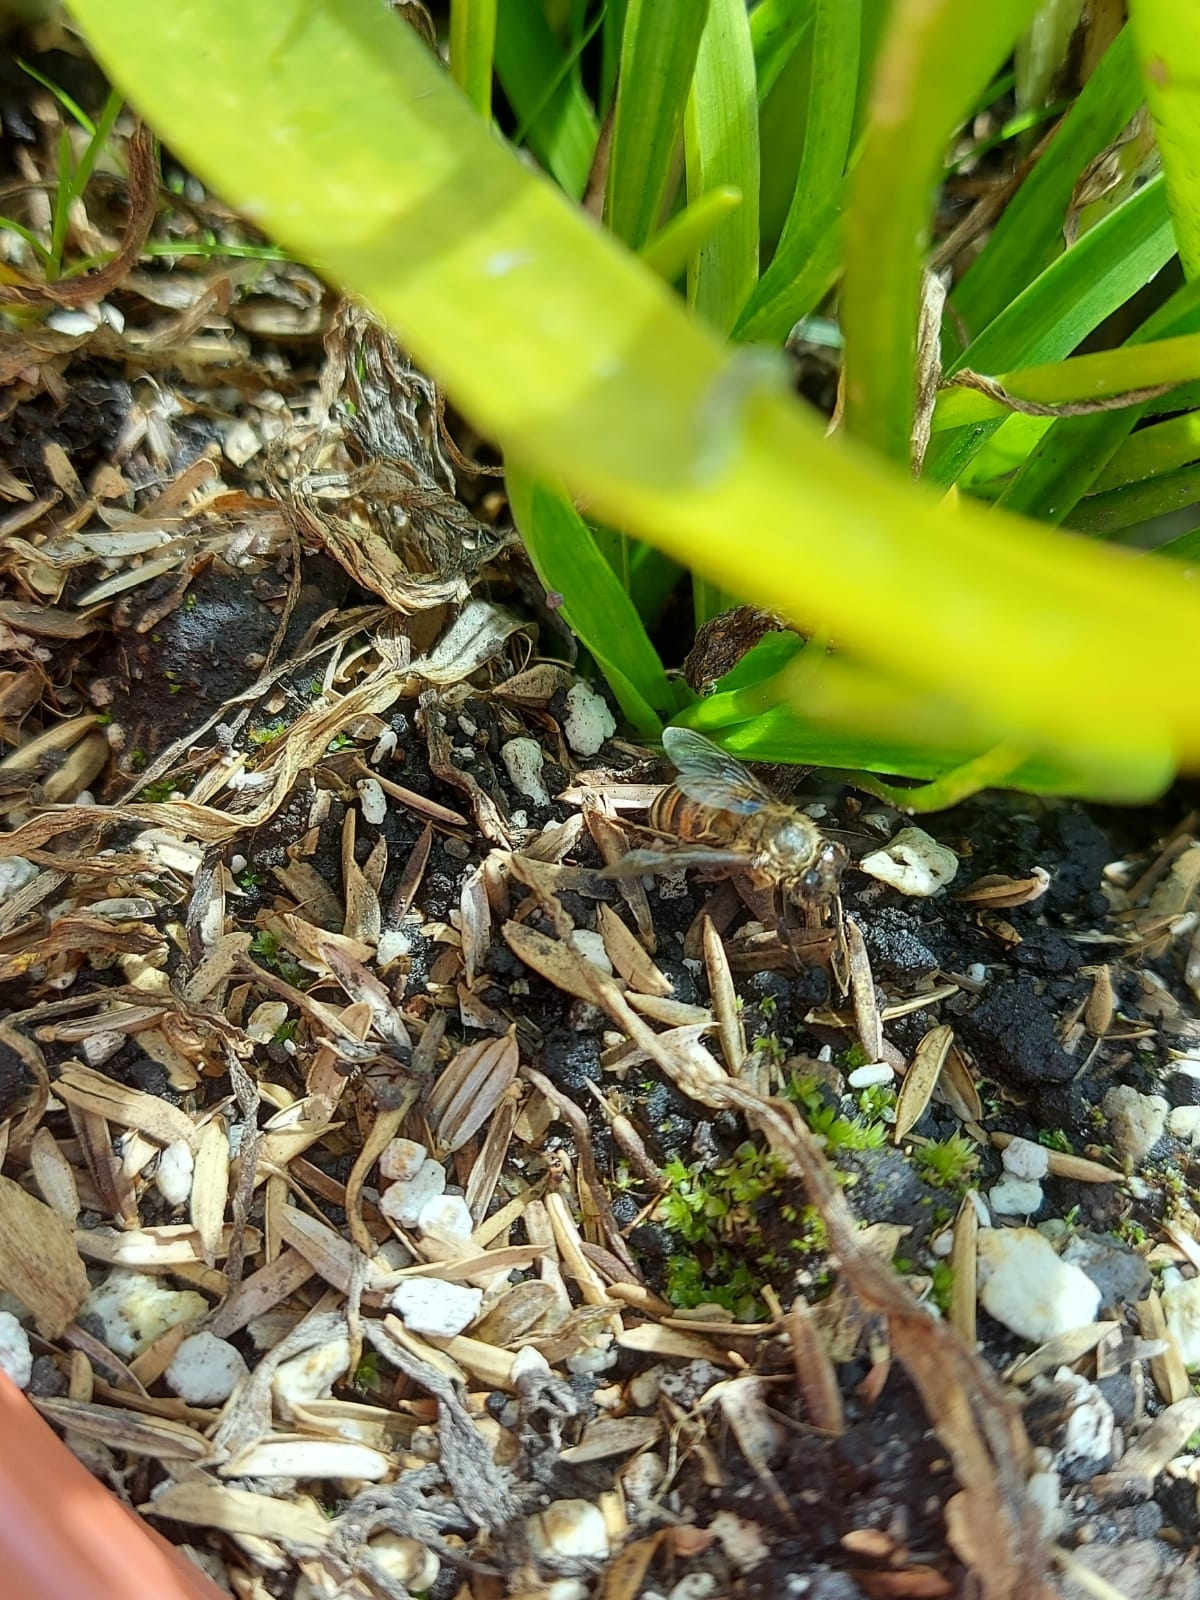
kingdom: Animalia
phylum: Arthropoda
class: Insecta
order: Hymenoptera
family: Apidae
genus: Apis
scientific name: Apis mellifera
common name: Honey bee
